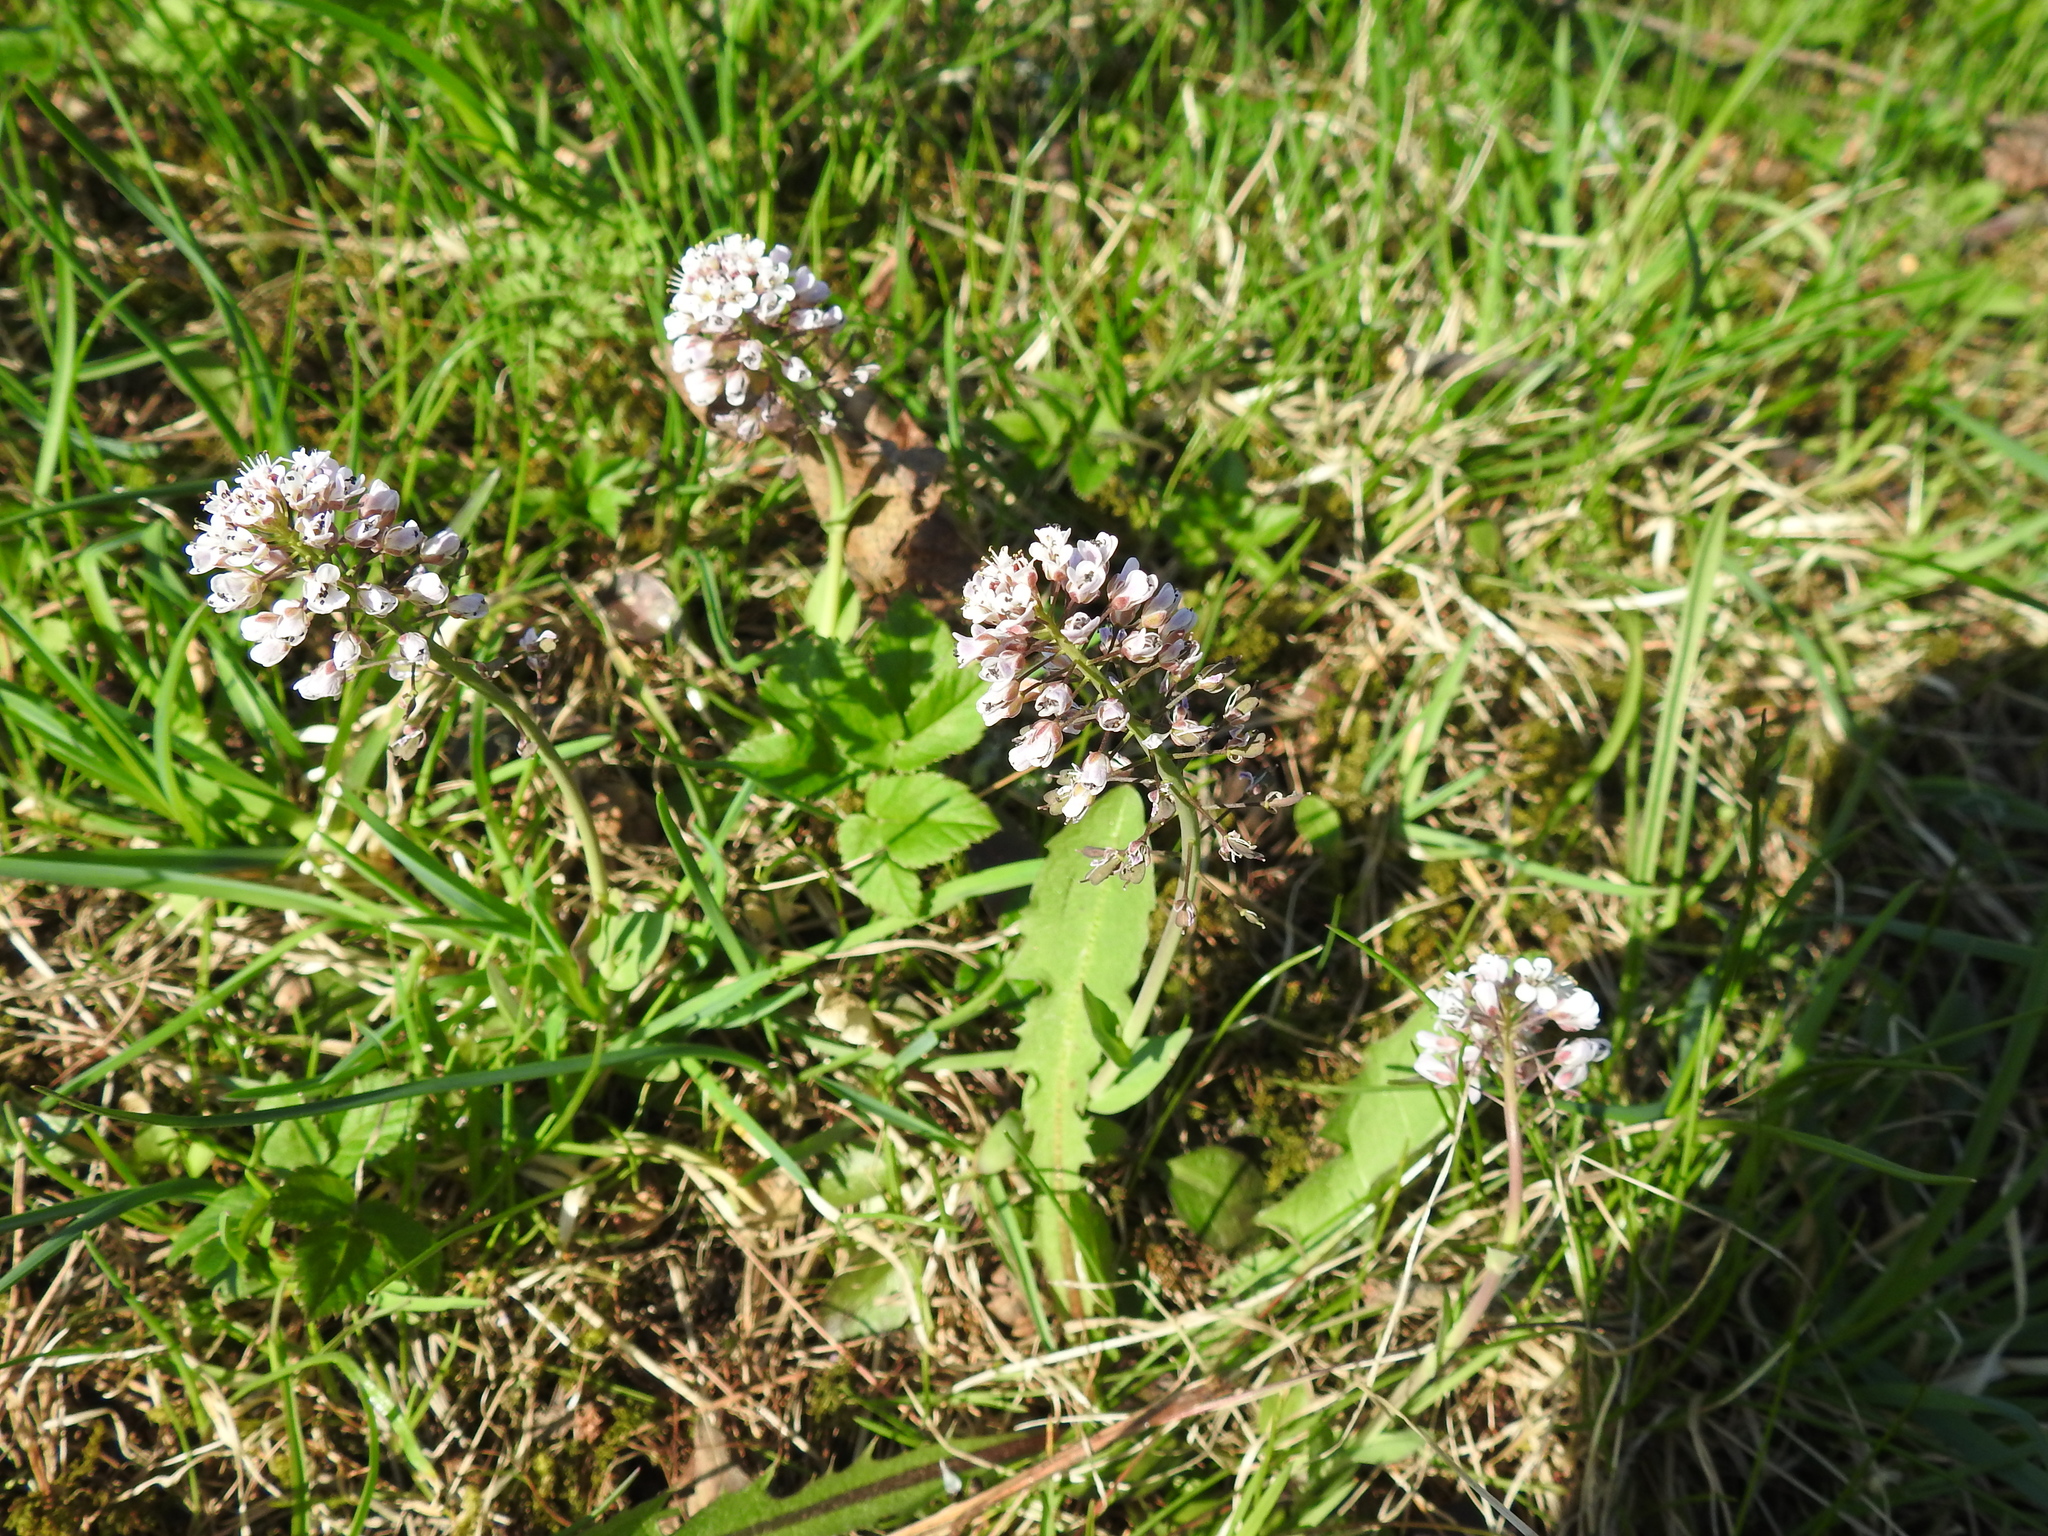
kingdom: Plantae
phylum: Tracheophyta
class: Magnoliopsida
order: Brassicales
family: Brassicaceae
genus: Noccaea
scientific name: Noccaea caerulescens
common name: Alpine pennycress
